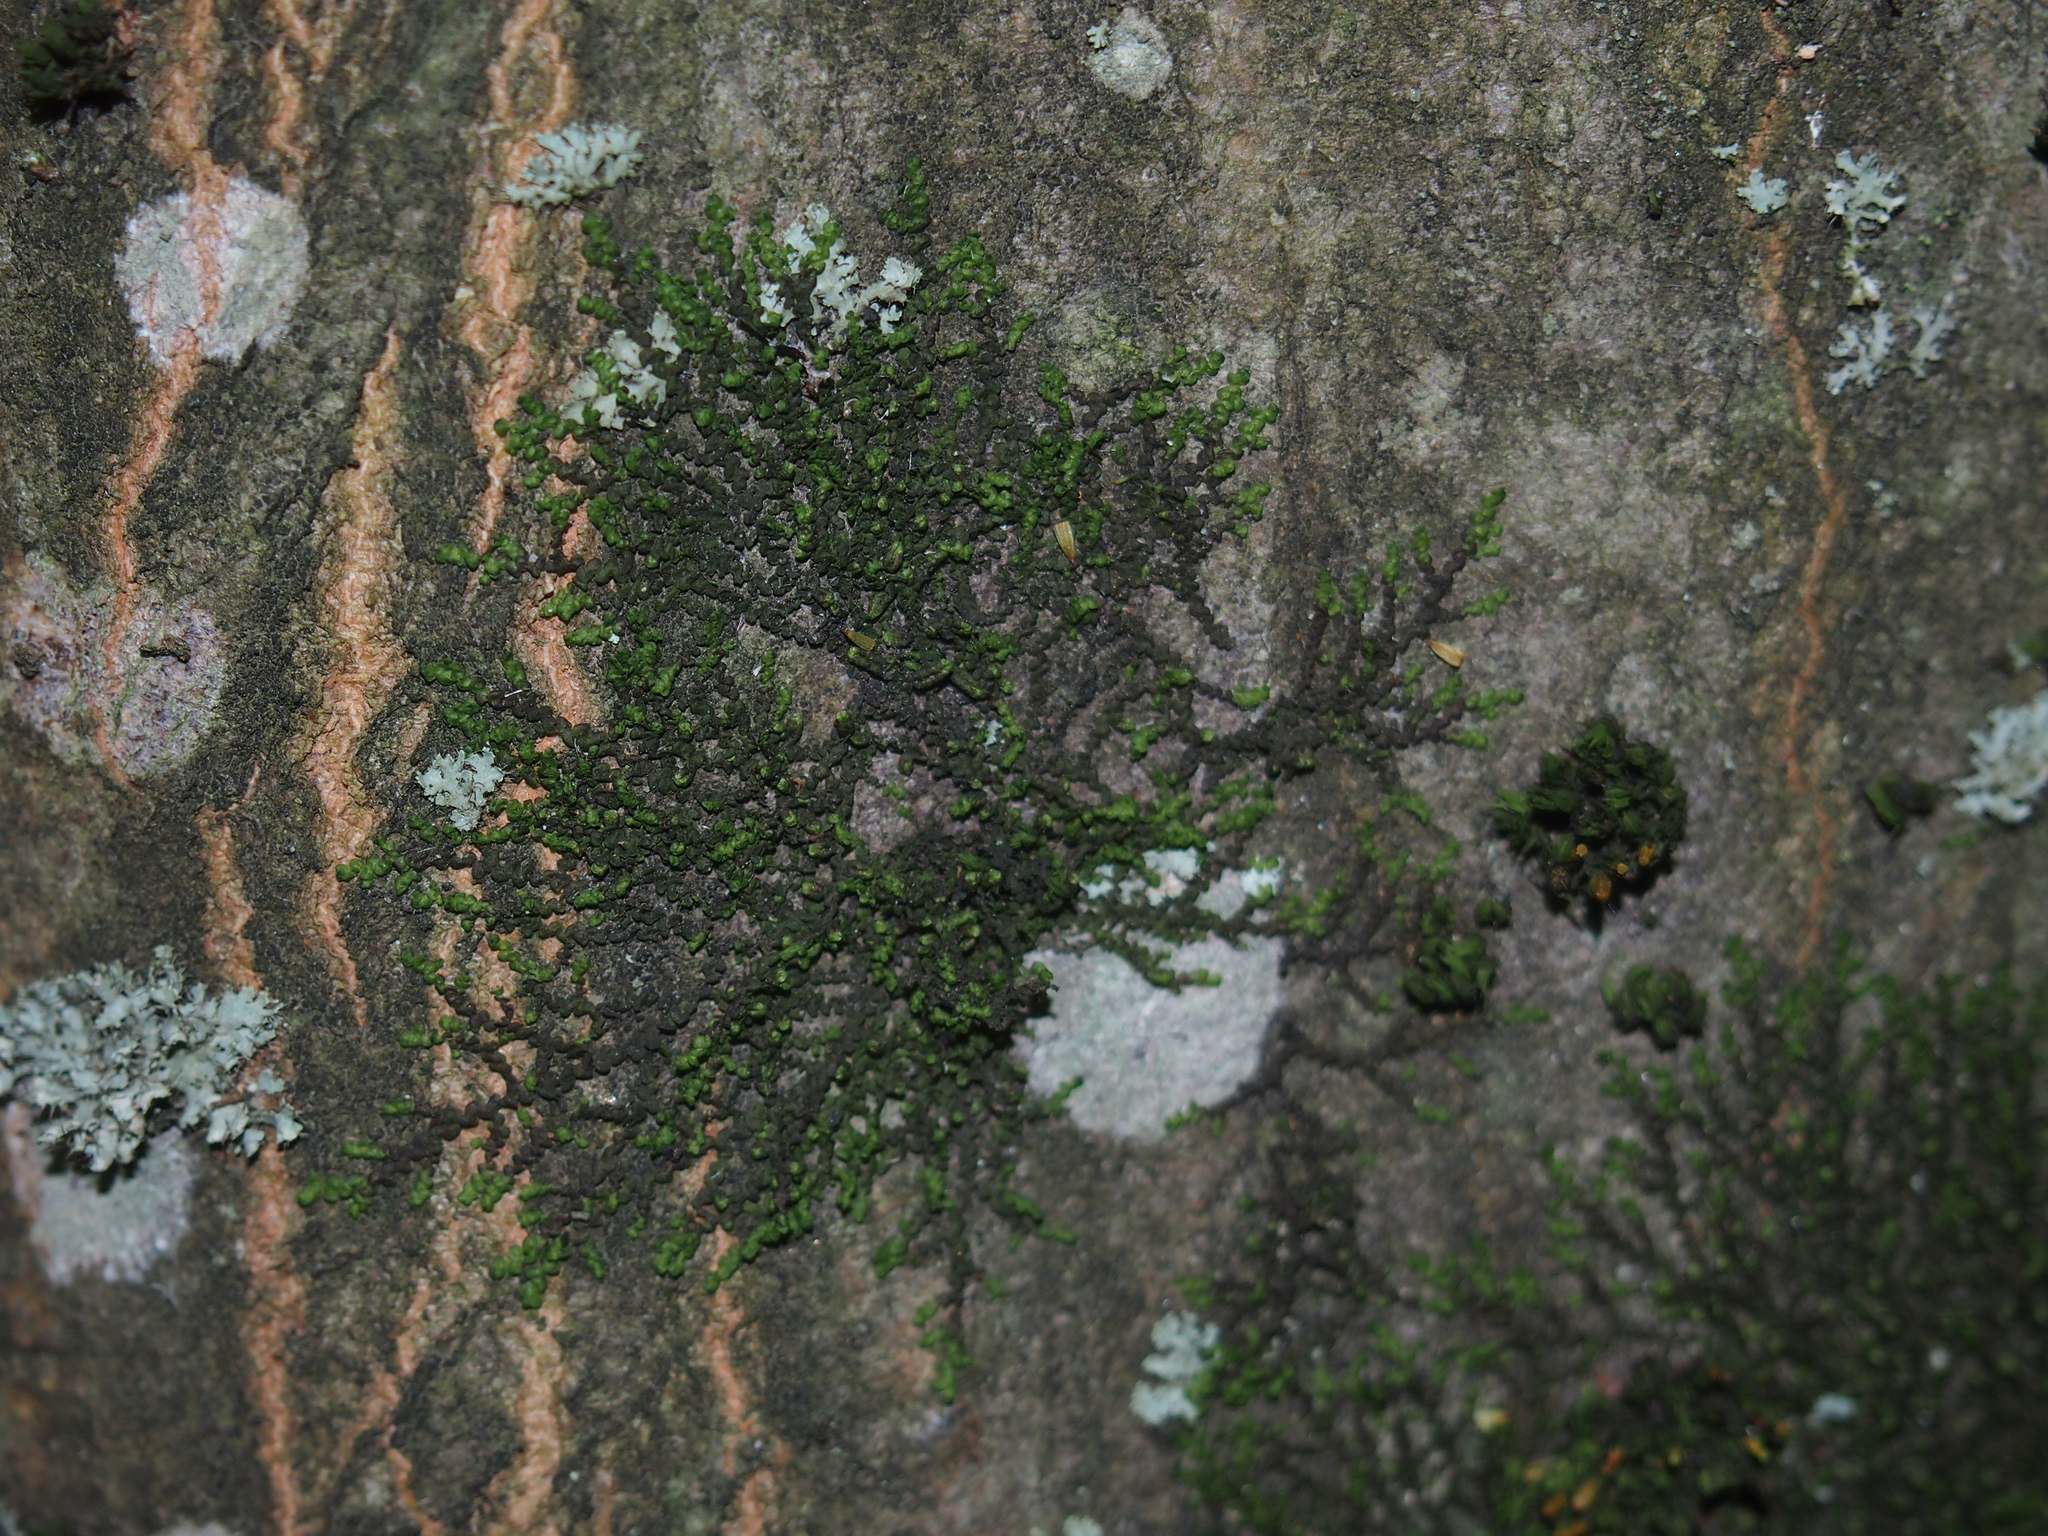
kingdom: Plantae
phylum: Marchantiophyta
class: Jungermanniopsida
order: Porellales
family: Frullaniaceae
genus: Frullania
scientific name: Frullania dilatata
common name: Dilated scalewort
